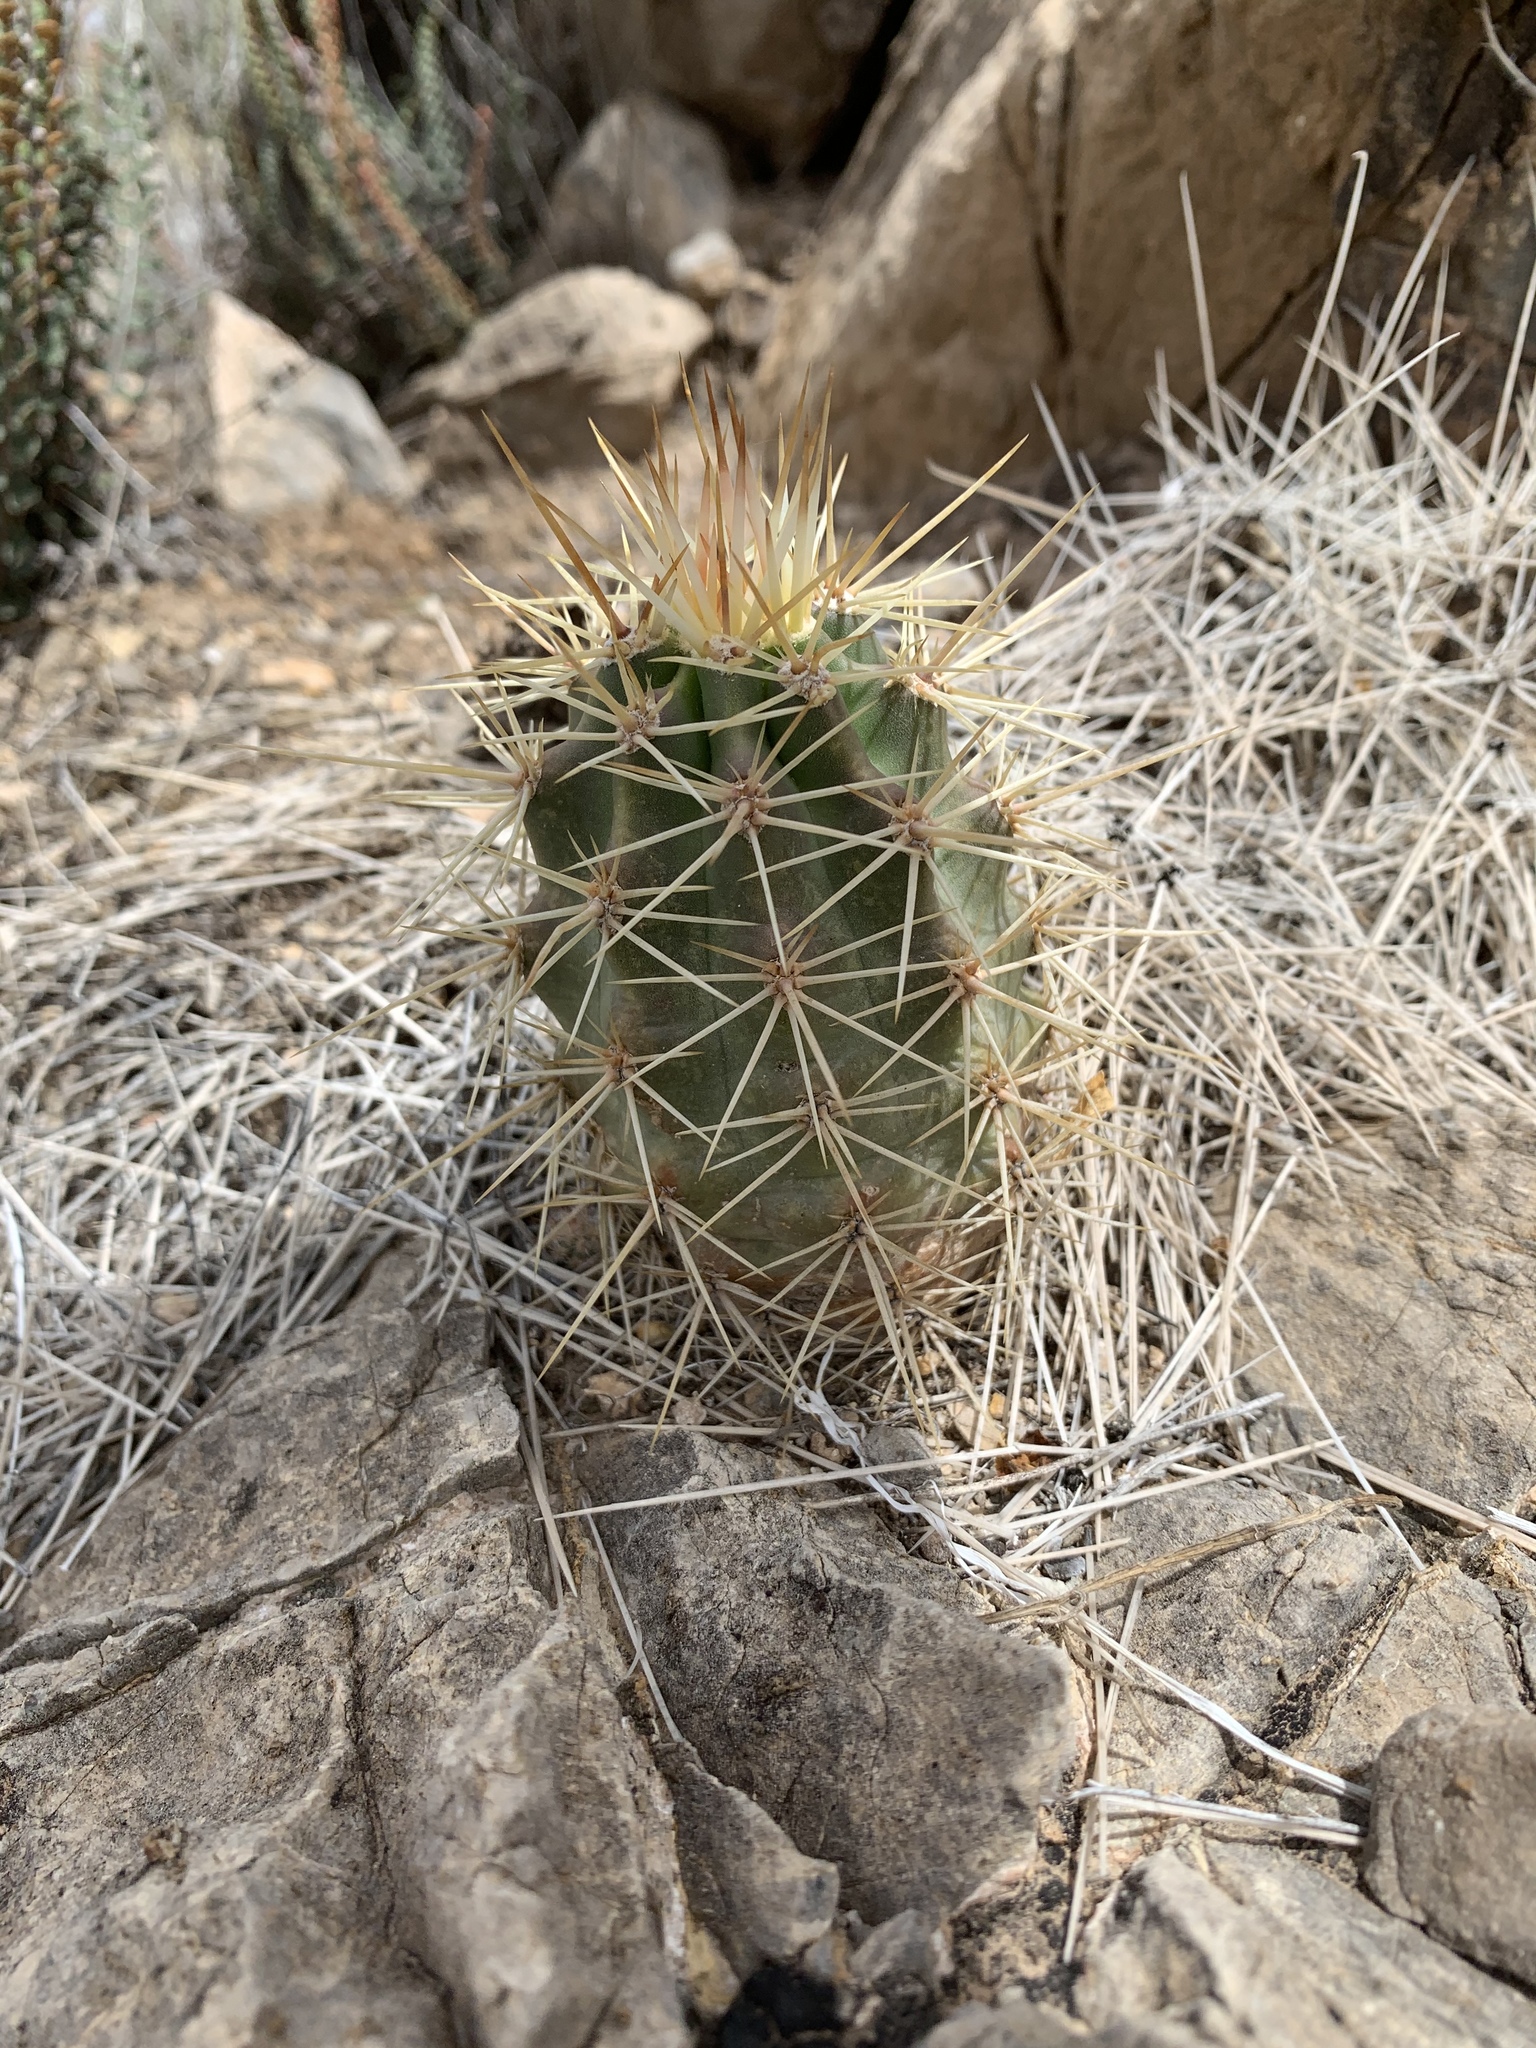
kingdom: Plantae
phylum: Tracheophyta
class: Magnoliopsida
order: Caryophyllales
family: Cactaceae
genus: Echinocereus
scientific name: Echinocereus coccineus
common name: Scarlet hedgehog cactus
